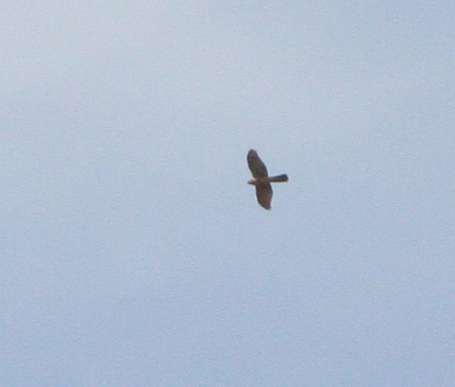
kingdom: Animalia
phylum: Chordata
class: Aves
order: Accipitriformes
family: Accipitridae
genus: Accipiter
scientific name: Accipiter nisus
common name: Eurasian sparrowhawk
